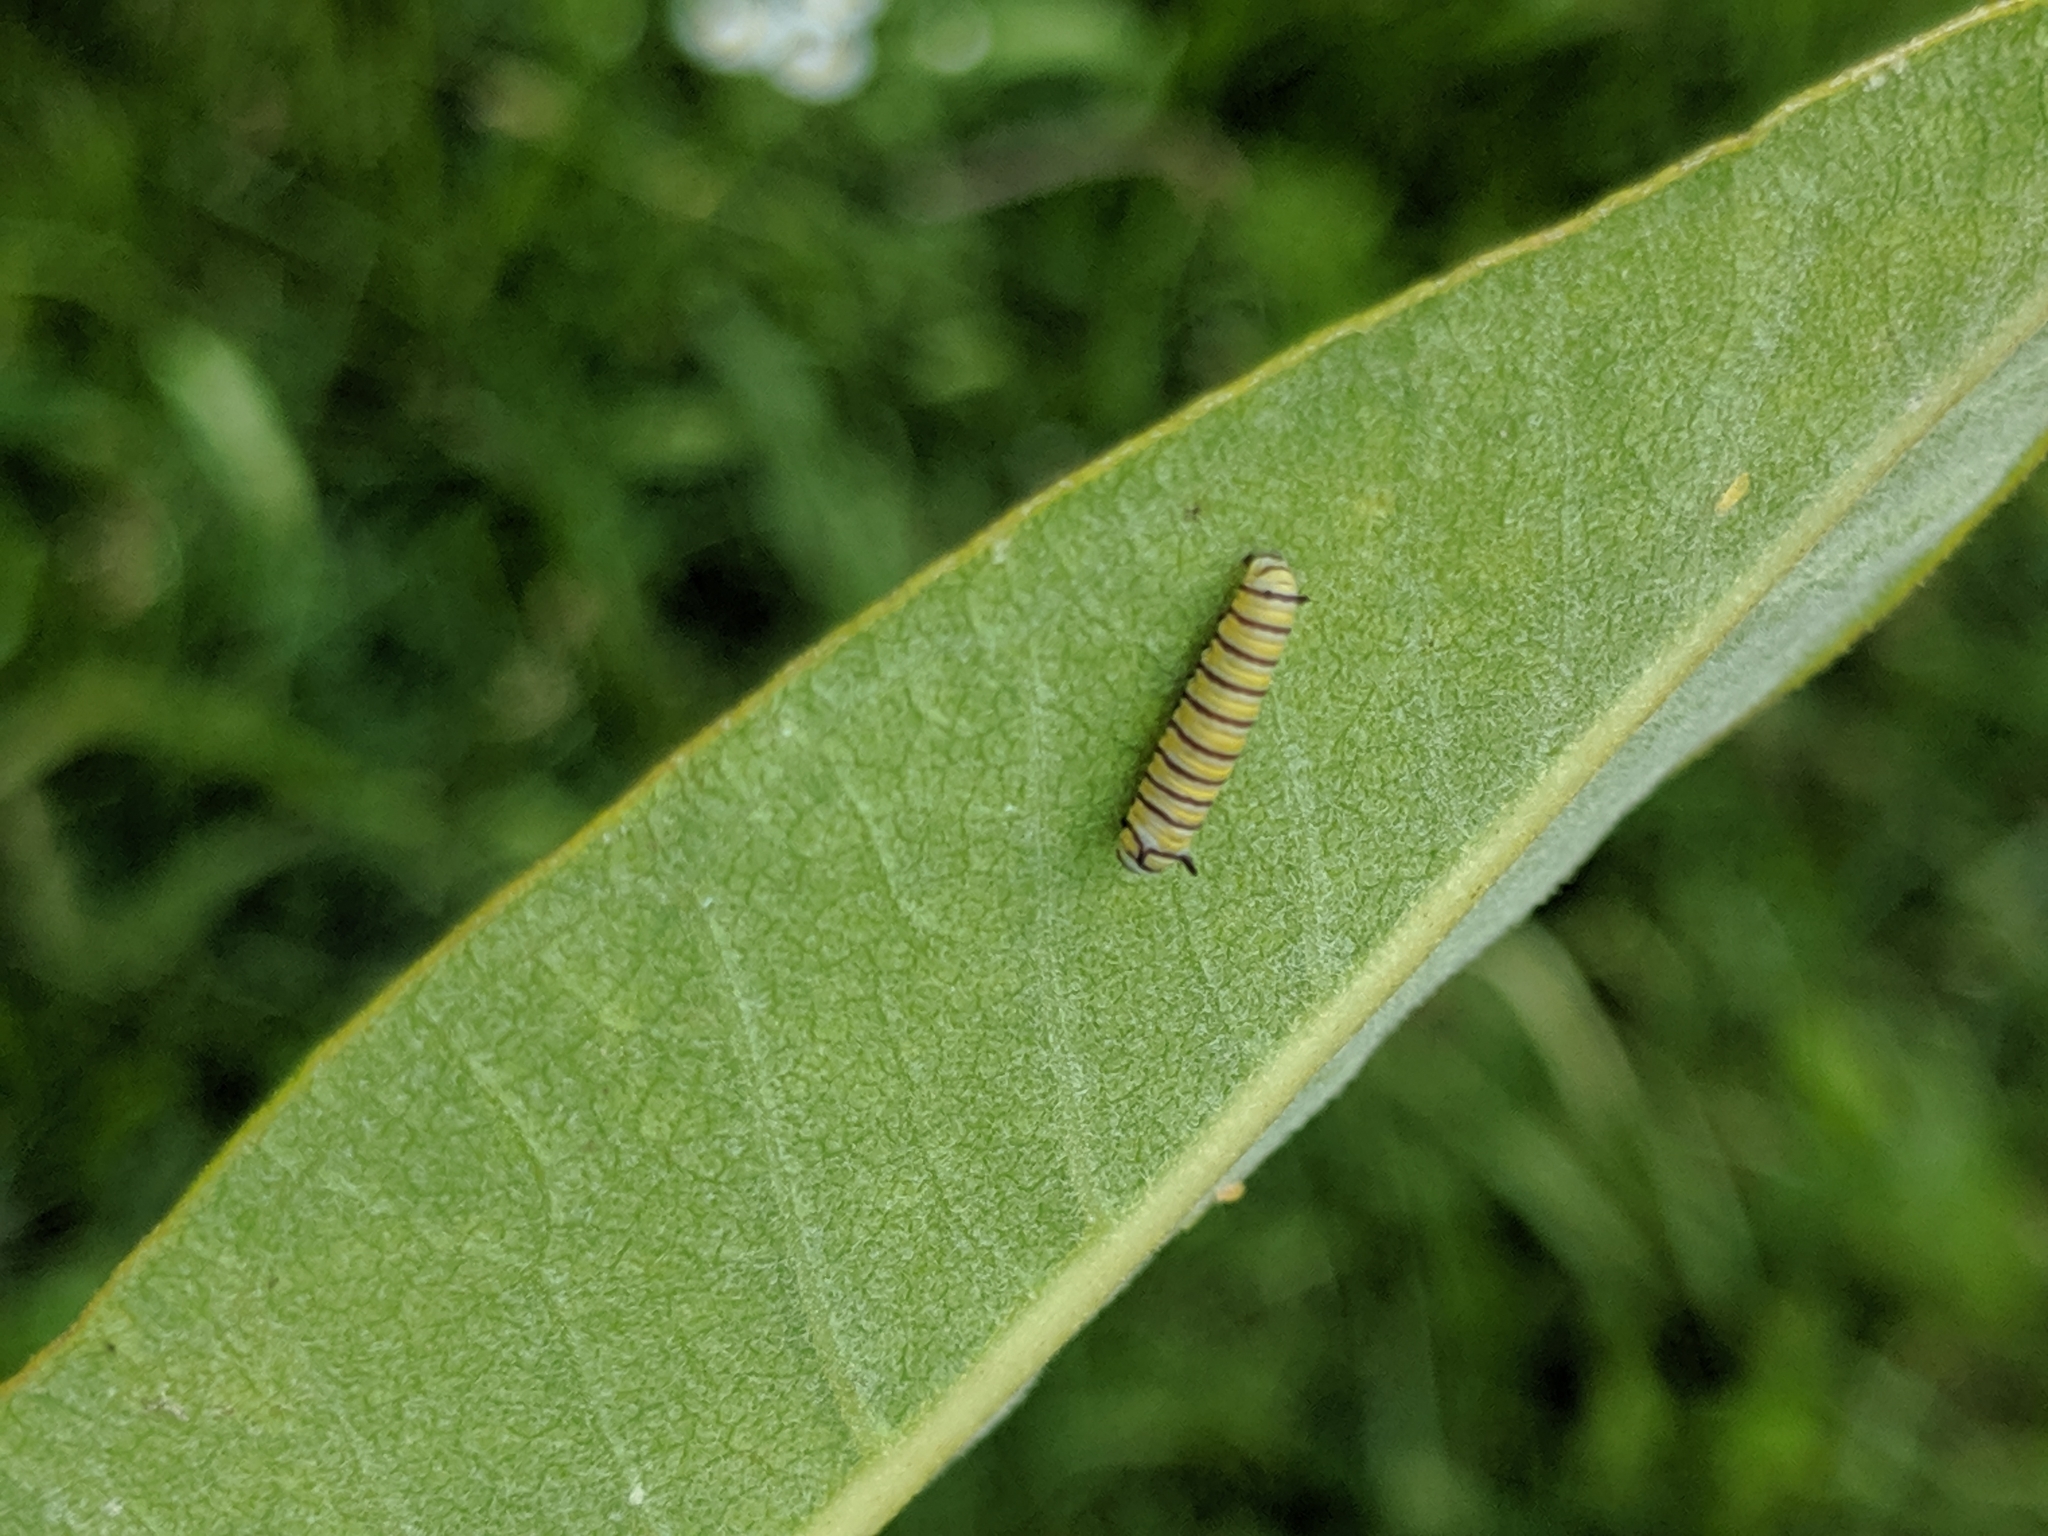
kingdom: Animalia
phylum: Arthropoda
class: Insecta
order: Lepidoptera
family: Nymphalidae
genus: Danaus
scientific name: Danaus plexippus
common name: Monarch
